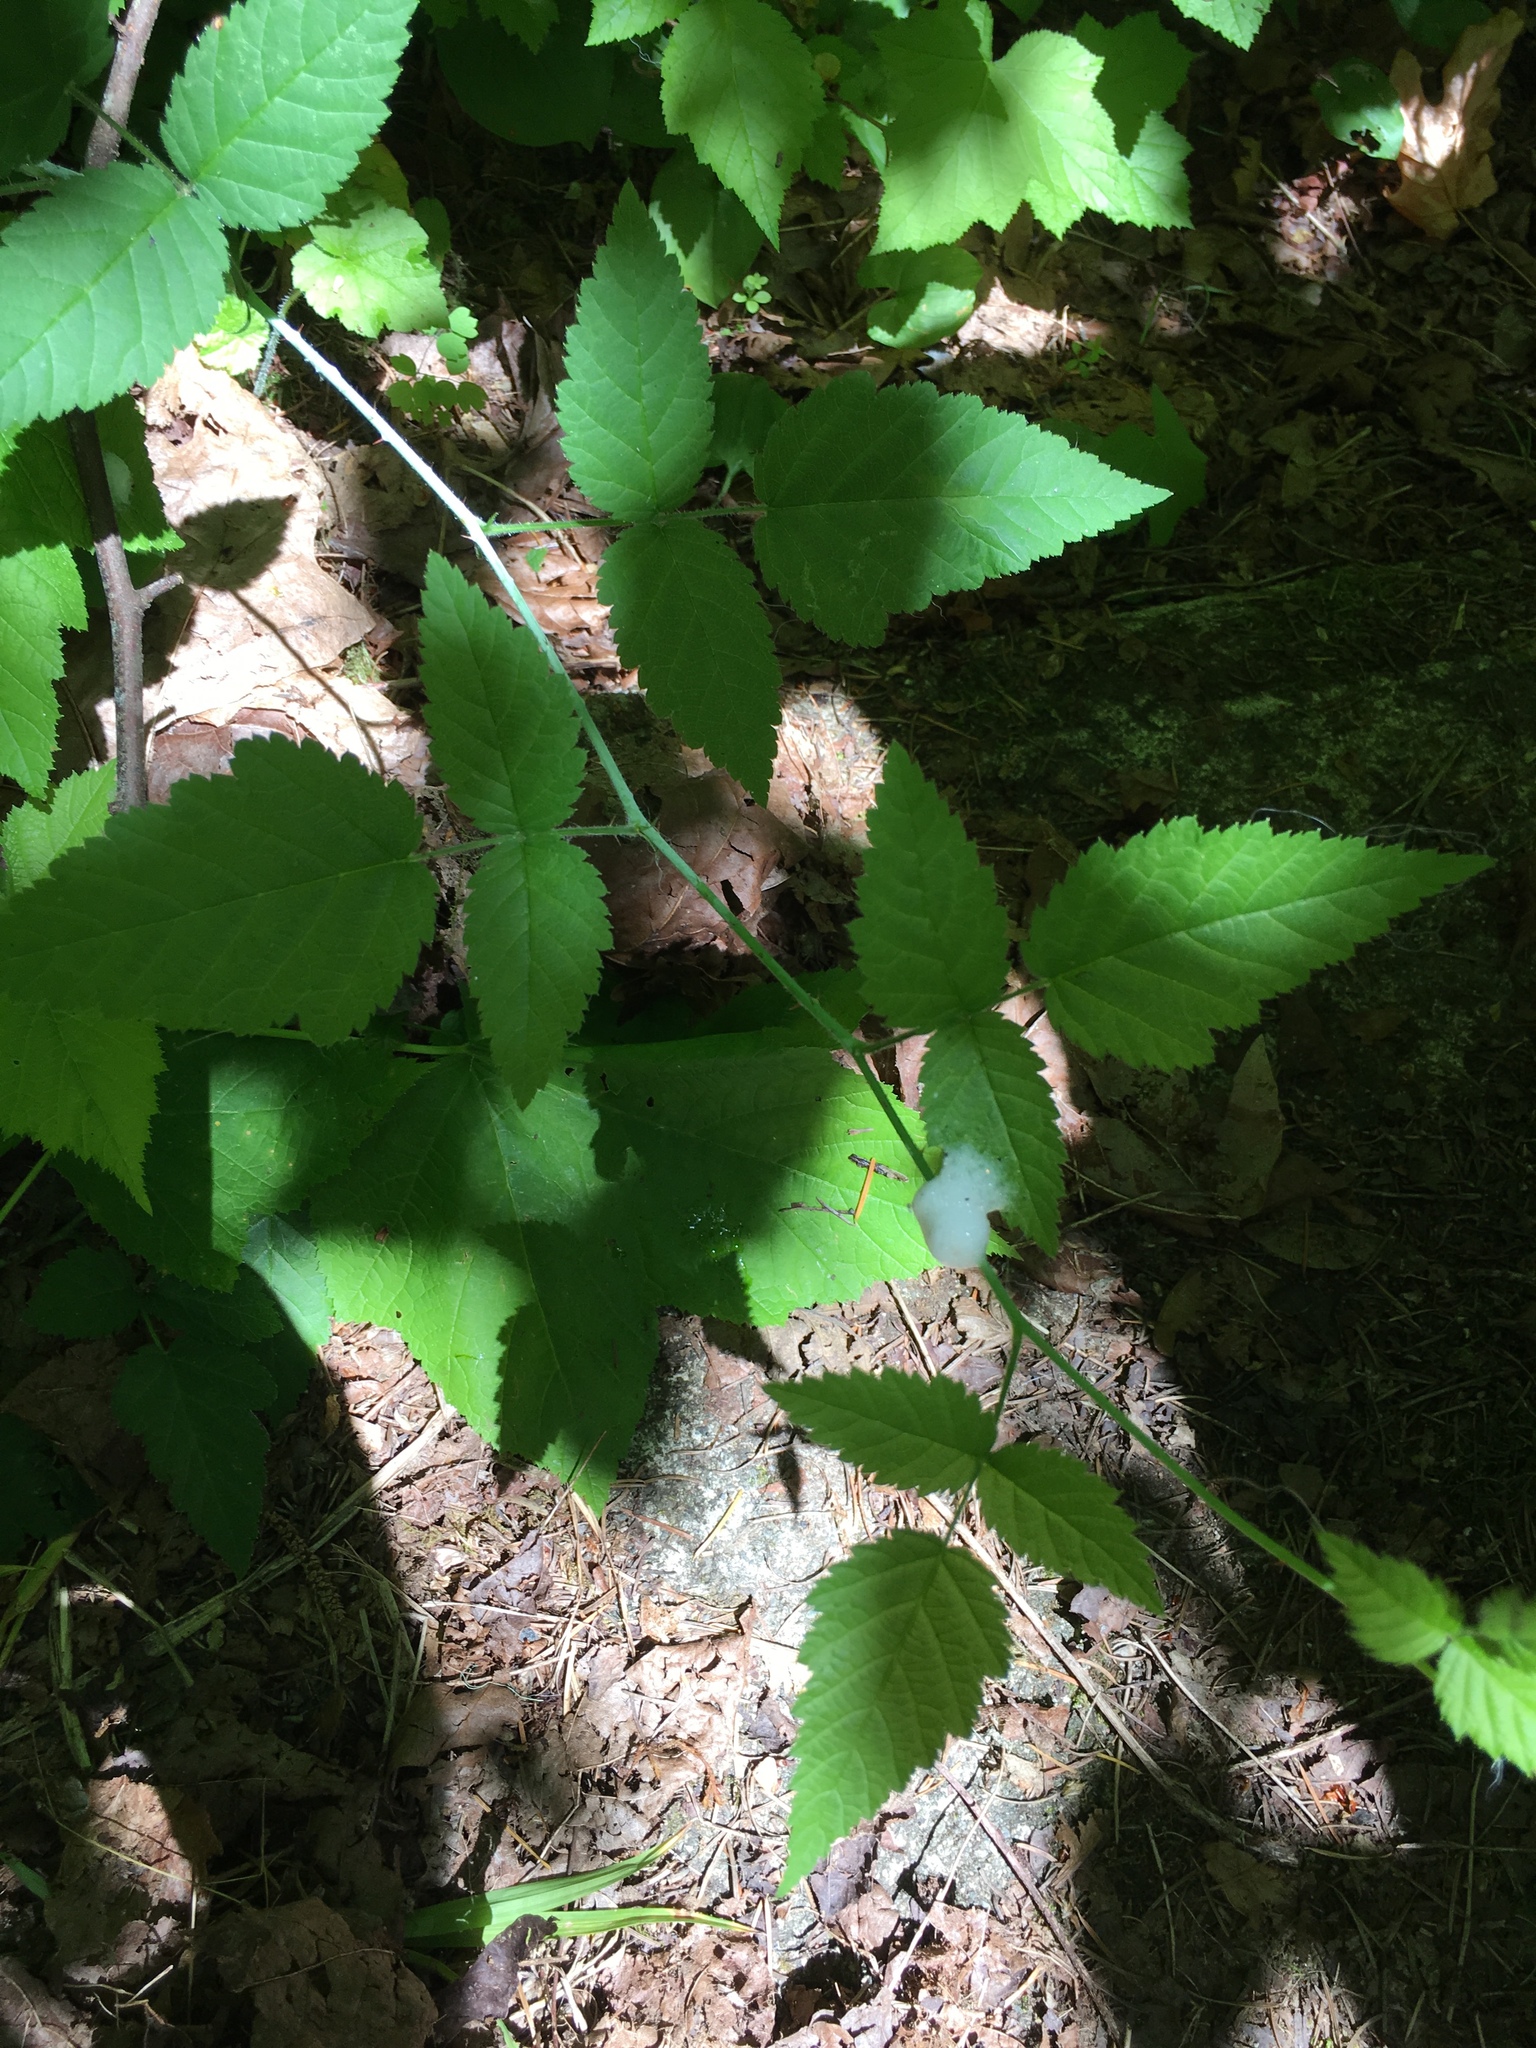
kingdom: Plantae
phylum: Tracheophyta
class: Magnoliopsida
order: Rosales
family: Rosaceae
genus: Rubus
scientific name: Rubus ursinus
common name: Pacific blackberry
